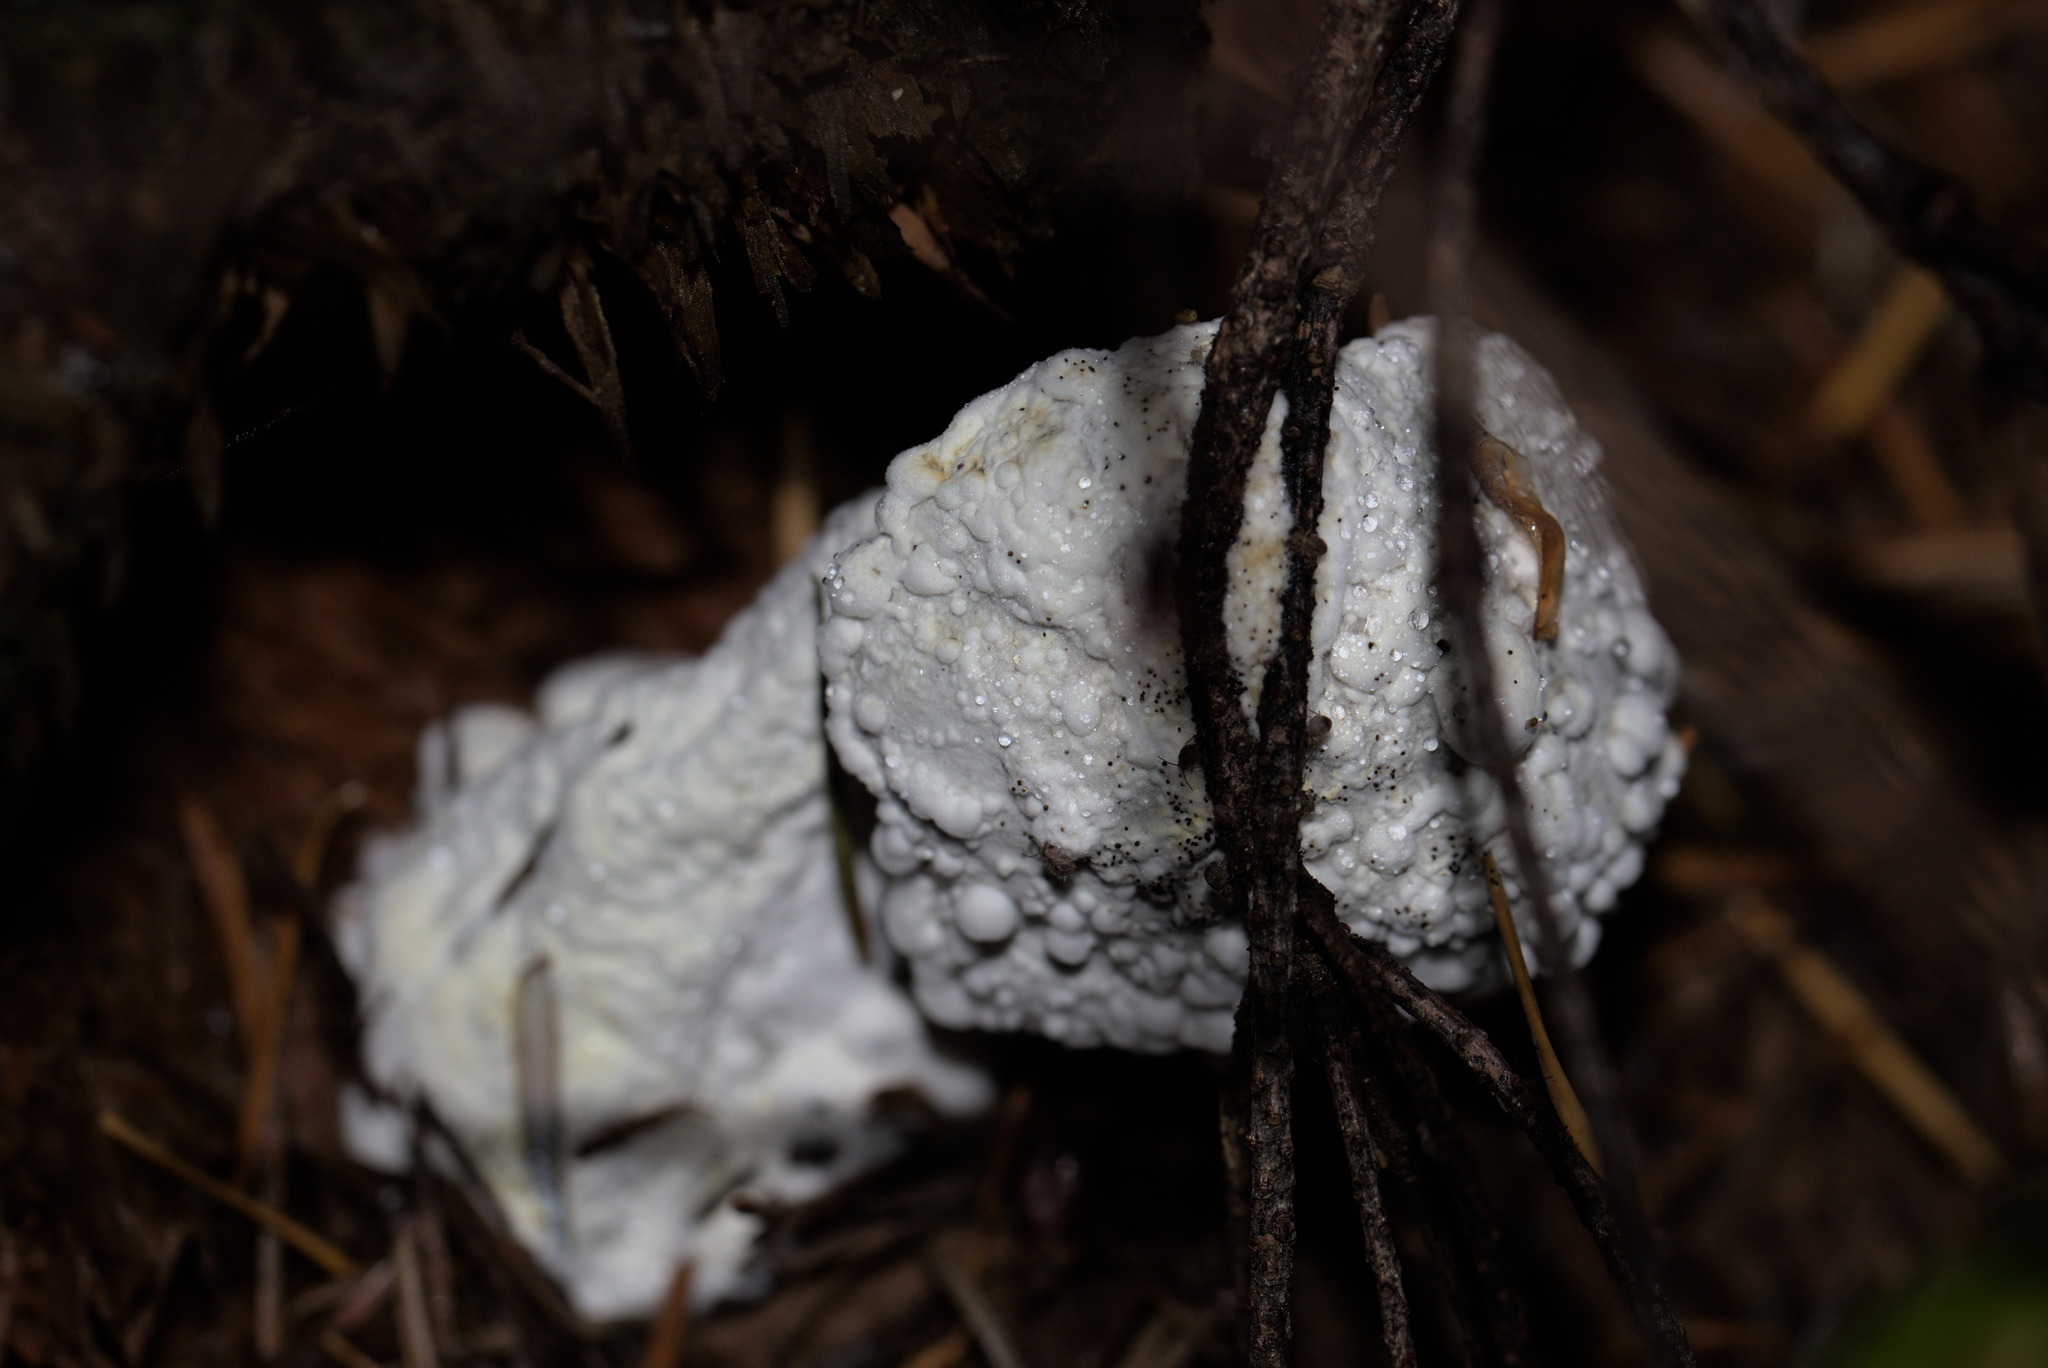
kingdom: Fungi
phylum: Ascomycota
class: Sordariomycetes
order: Hypocreales
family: Hypocreaceae
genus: Hypomyces
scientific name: Hypomyces chrysospermus
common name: Bolete mould
